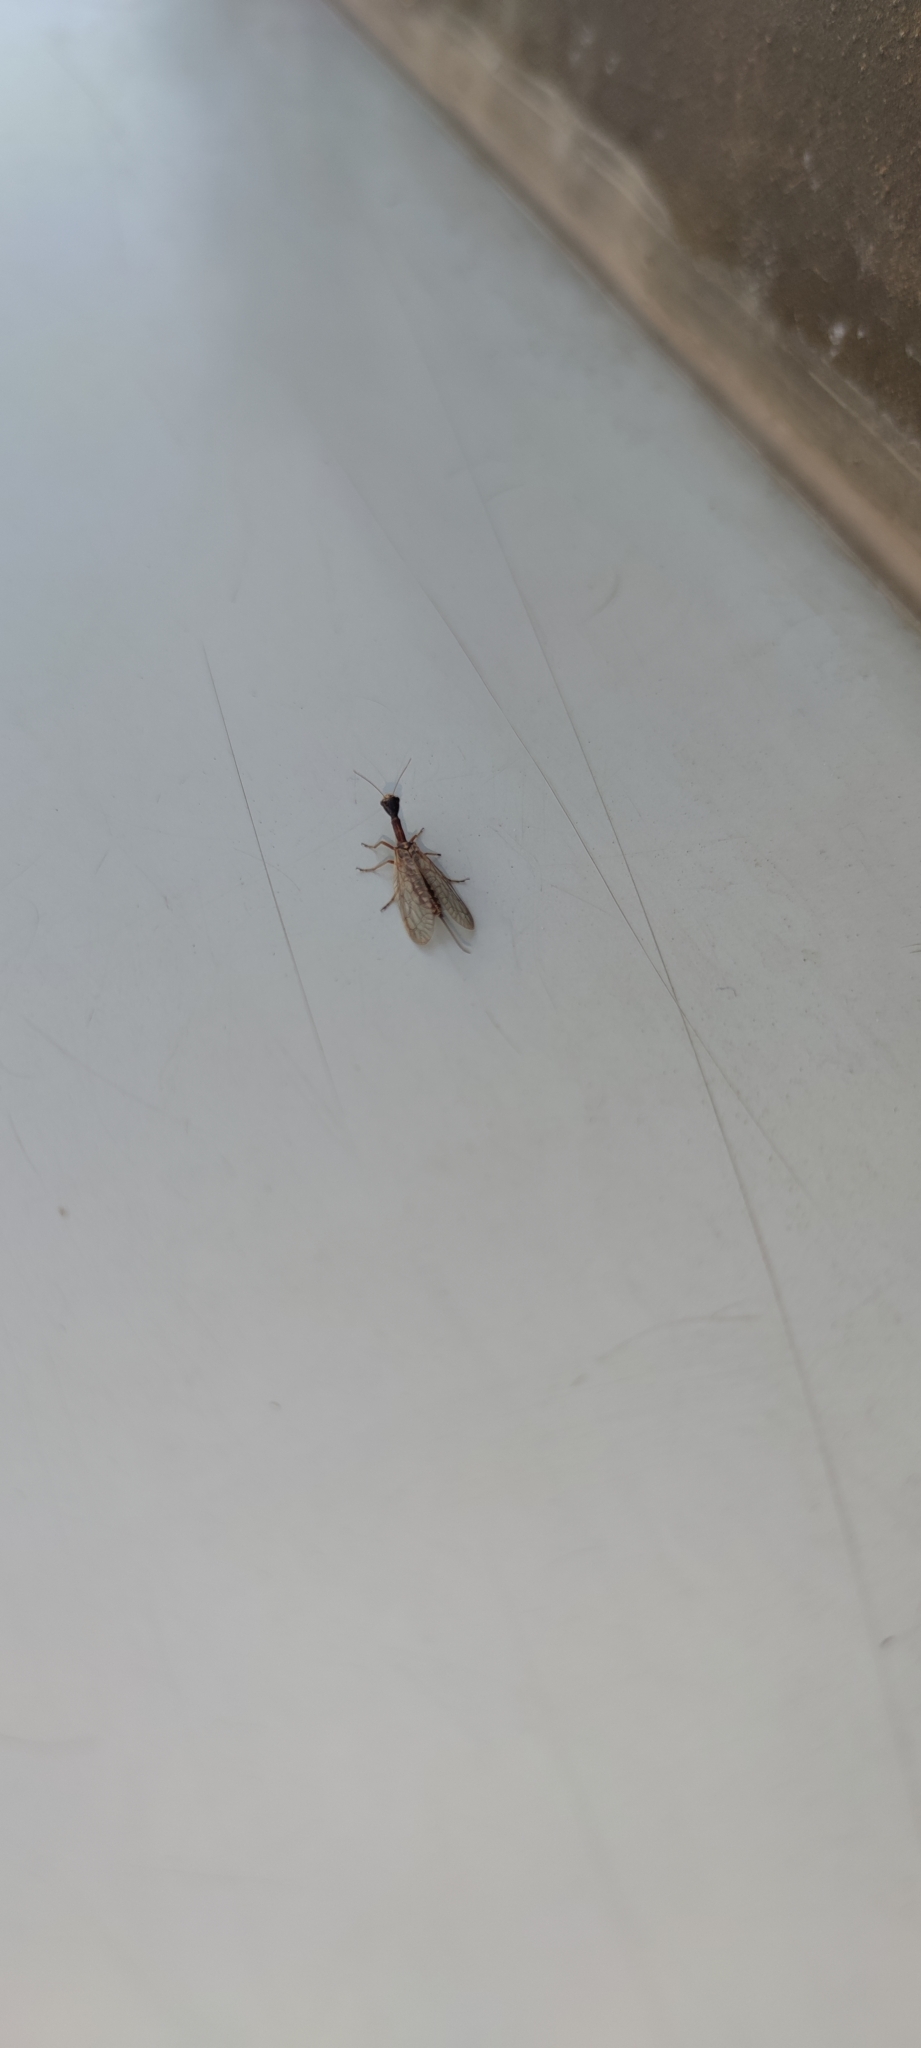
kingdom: Animalia
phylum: Arthropoda
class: Insecta
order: Raphidioptera
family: Raphidiidae
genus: Xanthostigma
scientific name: Xanthostigma xanthostigma
